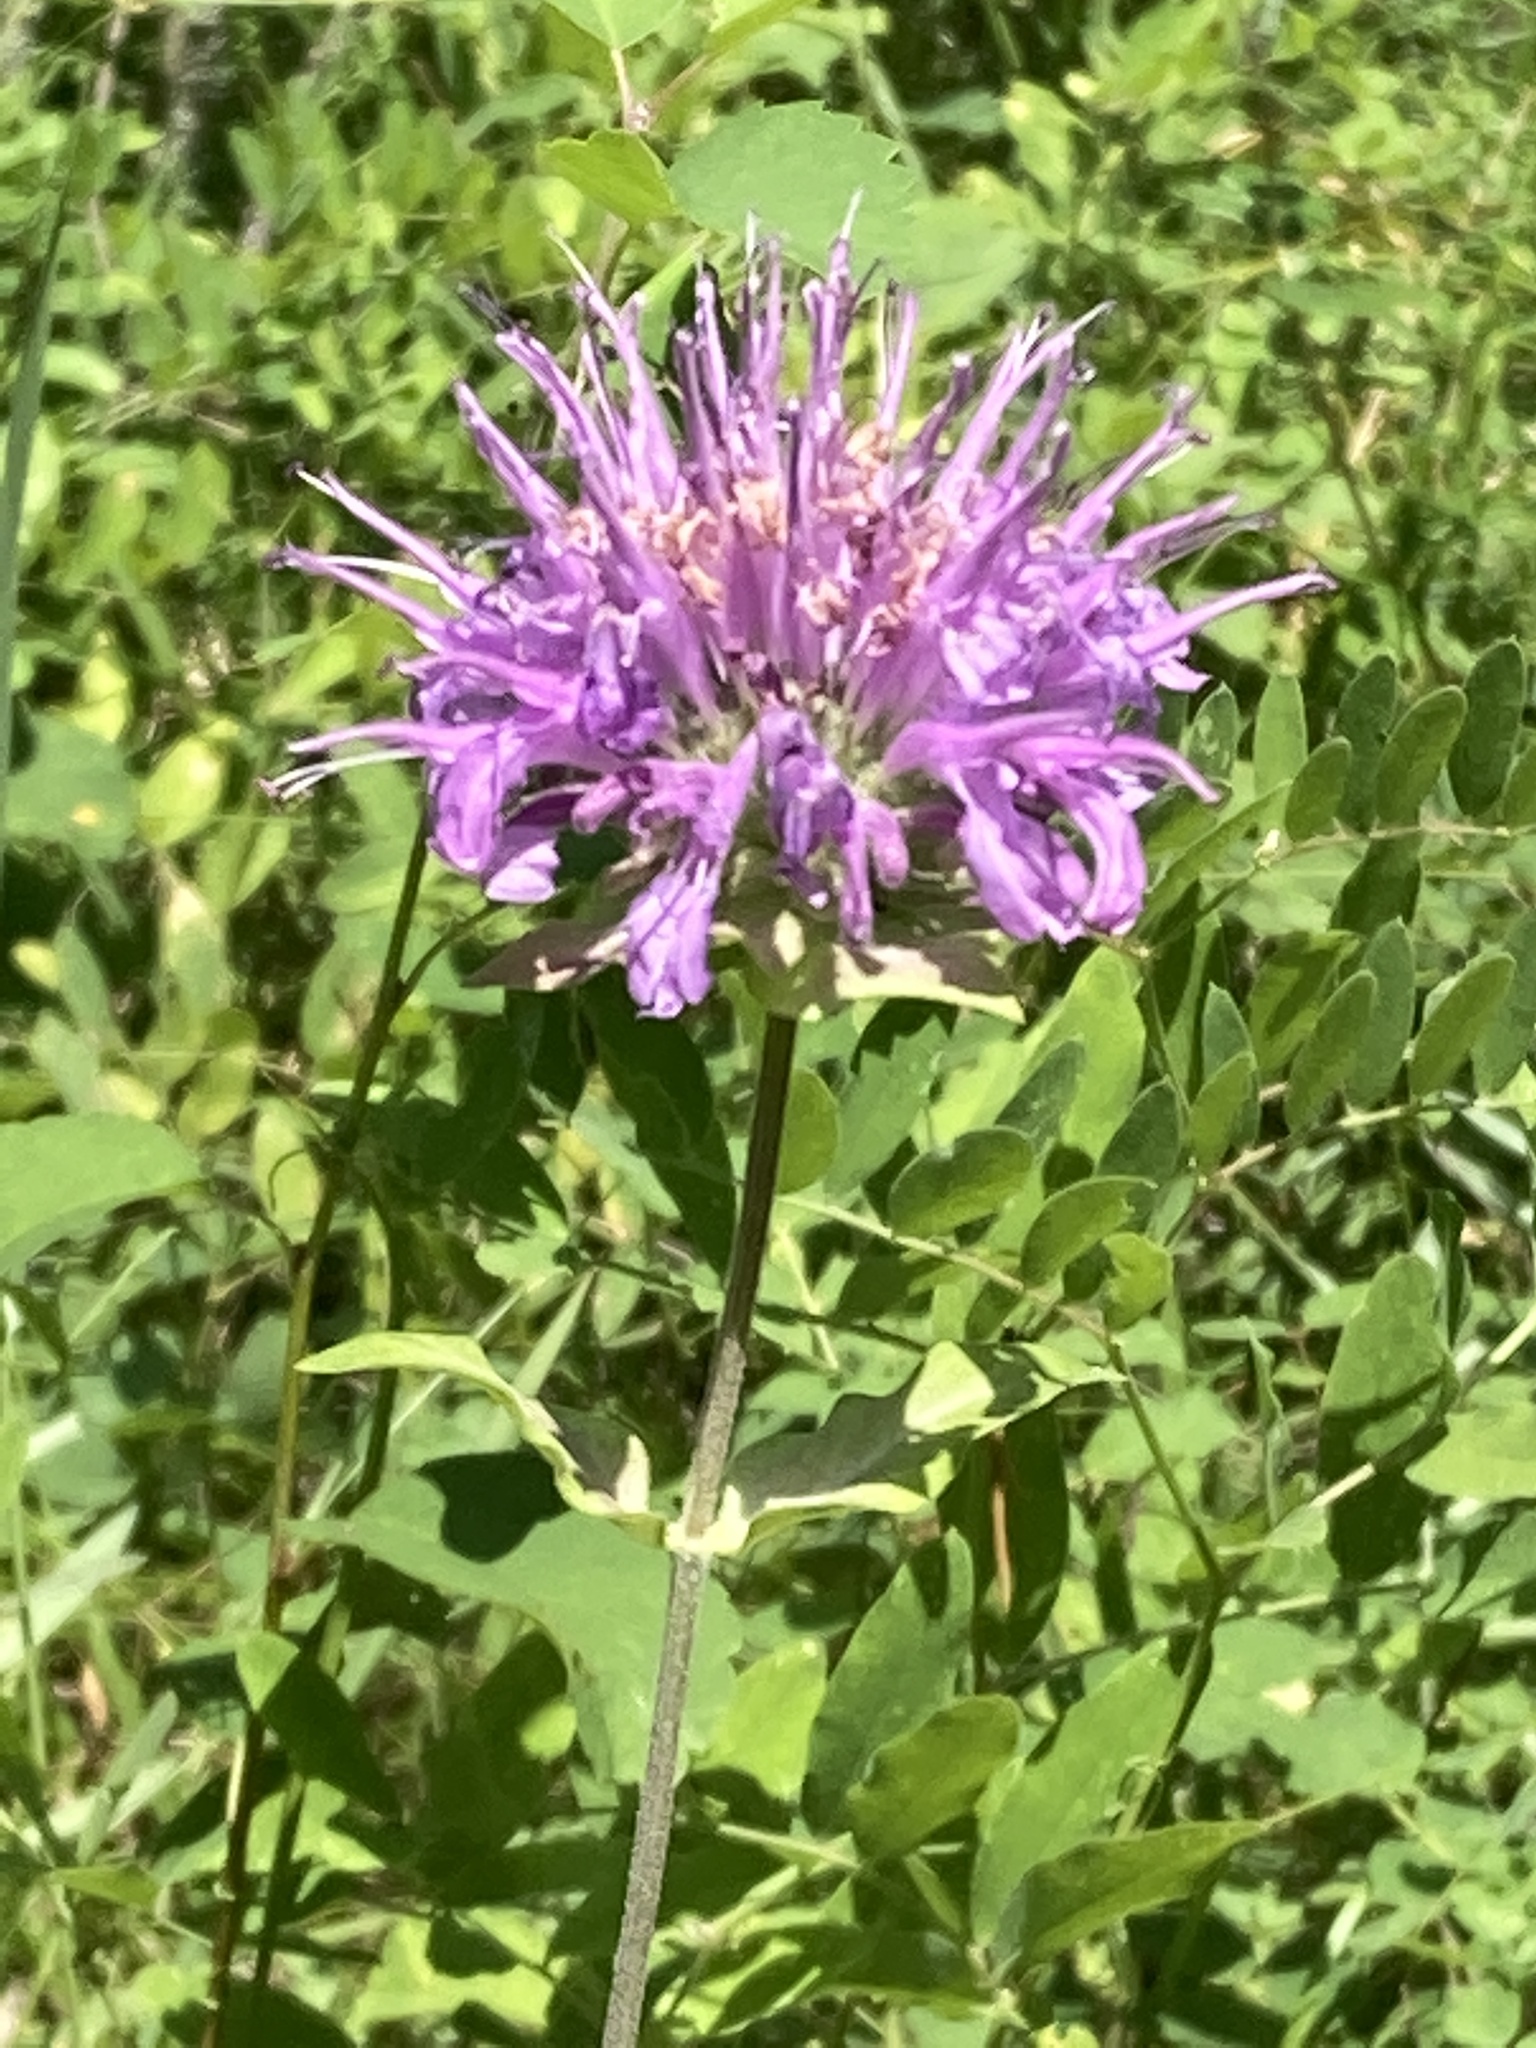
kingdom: Plantae
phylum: Tracheophyta
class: Magnoliopsida
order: Lamiales
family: Lamiaceae
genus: Monarda
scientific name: Monarda fistulosa
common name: Purple beebalm
